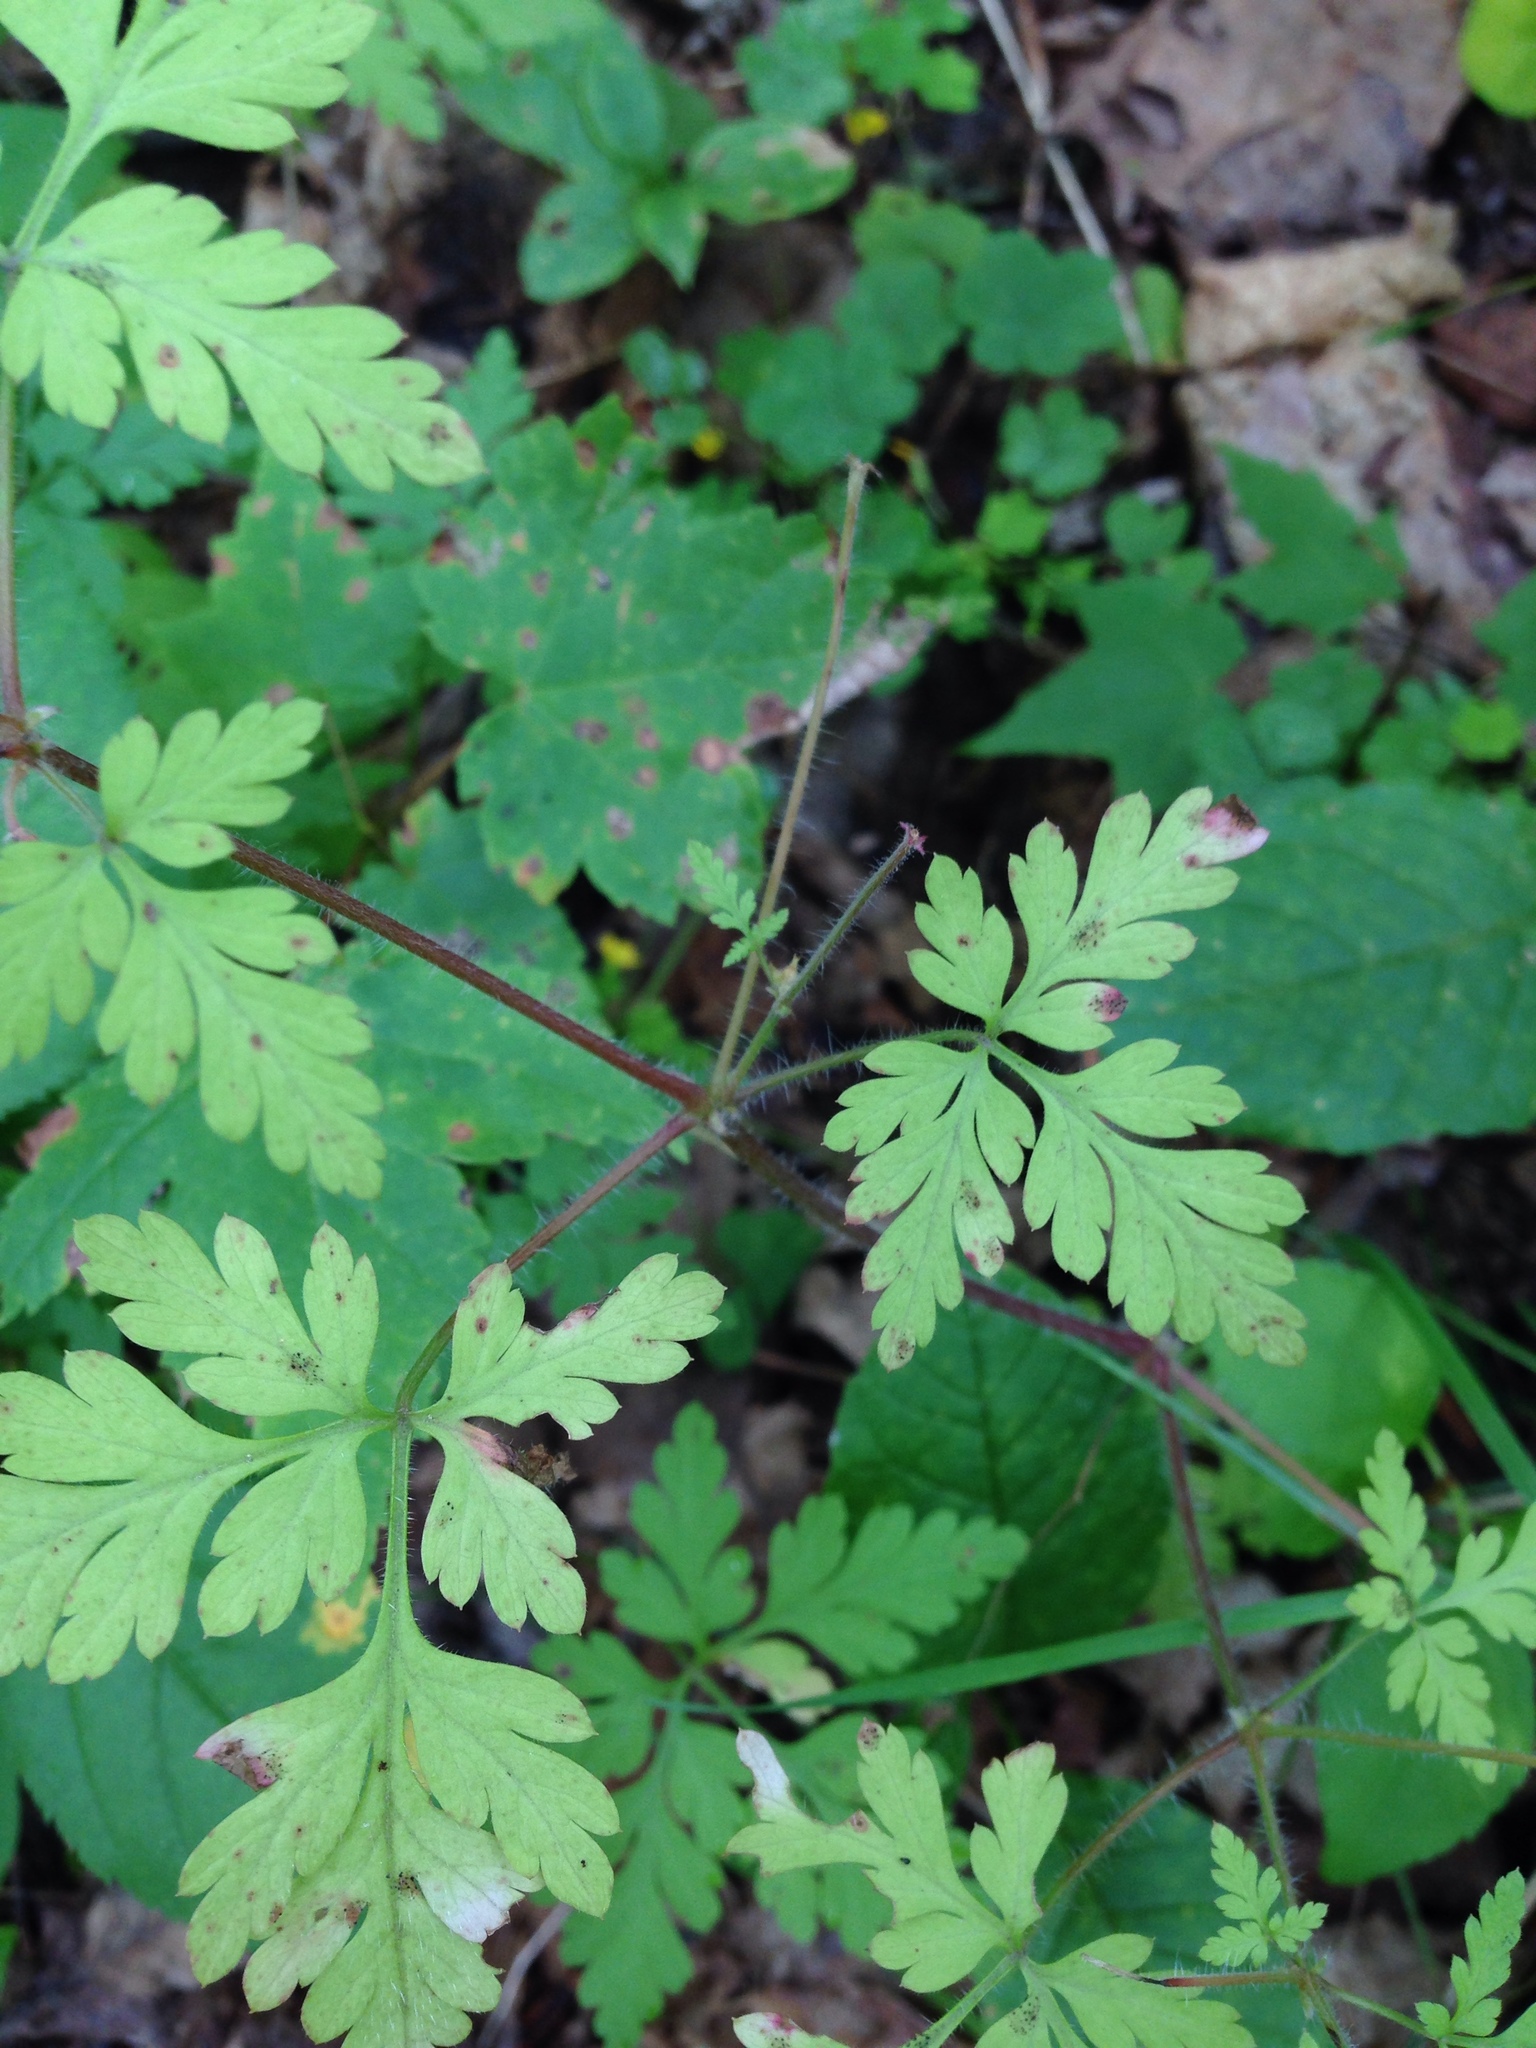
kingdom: Plantae
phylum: Tracheophyta
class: Magnoliopsida
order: Geraniales
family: Geraniaceae
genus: Geranium
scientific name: Geranium robertianum
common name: Herb-robert
